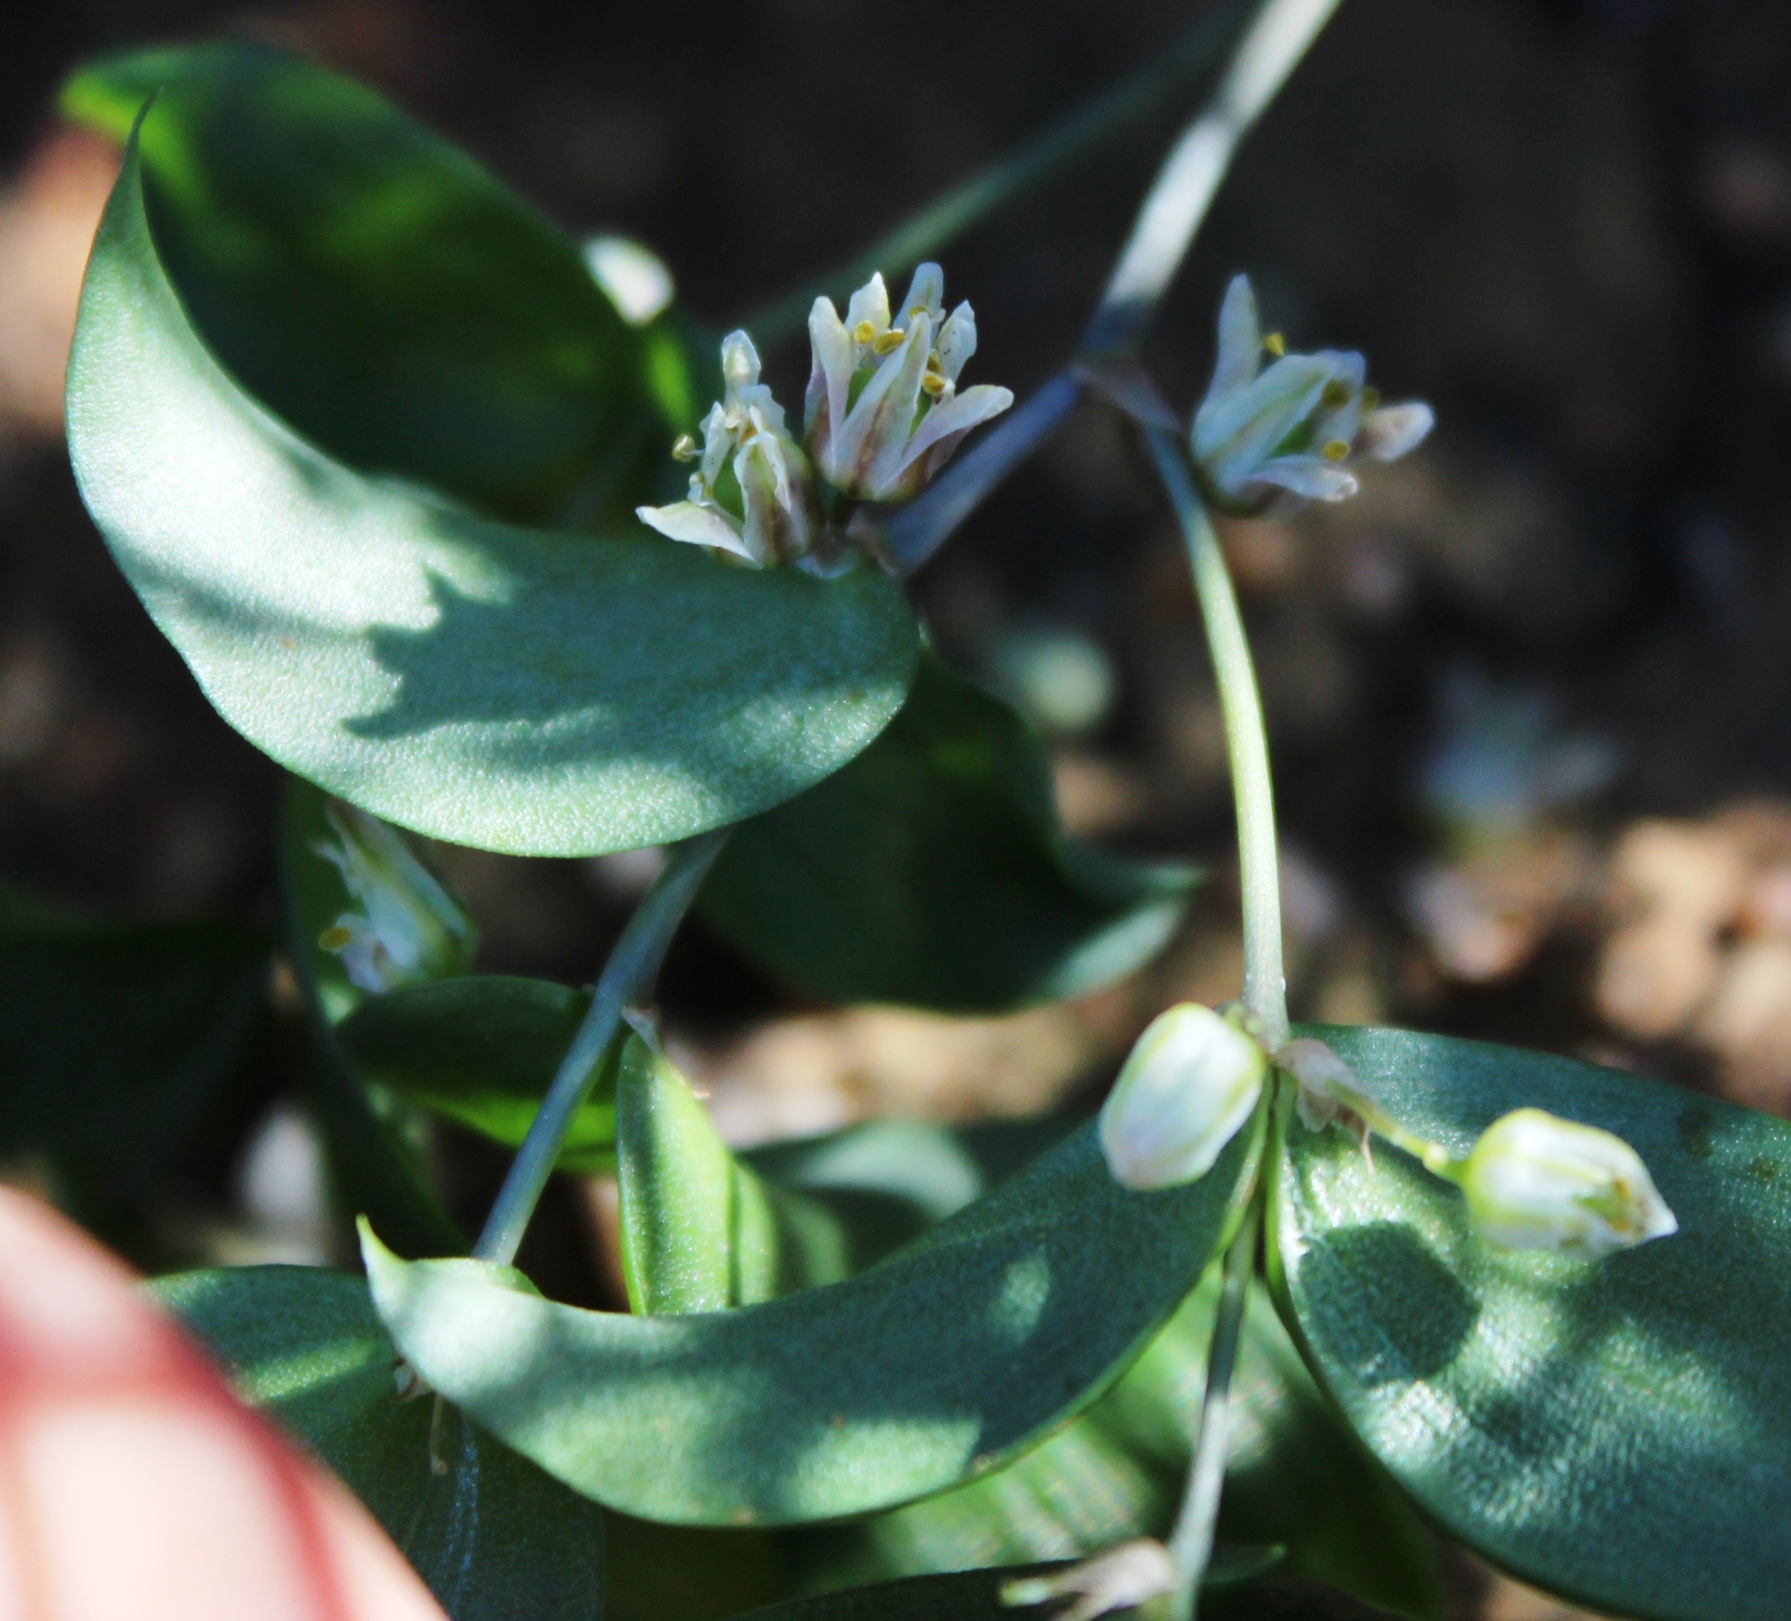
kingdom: Plantae
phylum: Tracheophyta
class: Liliopsida
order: Asparagales
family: Asparagaceae
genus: Asparagus
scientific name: Asparagus asparagoides
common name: African asparagus fern
